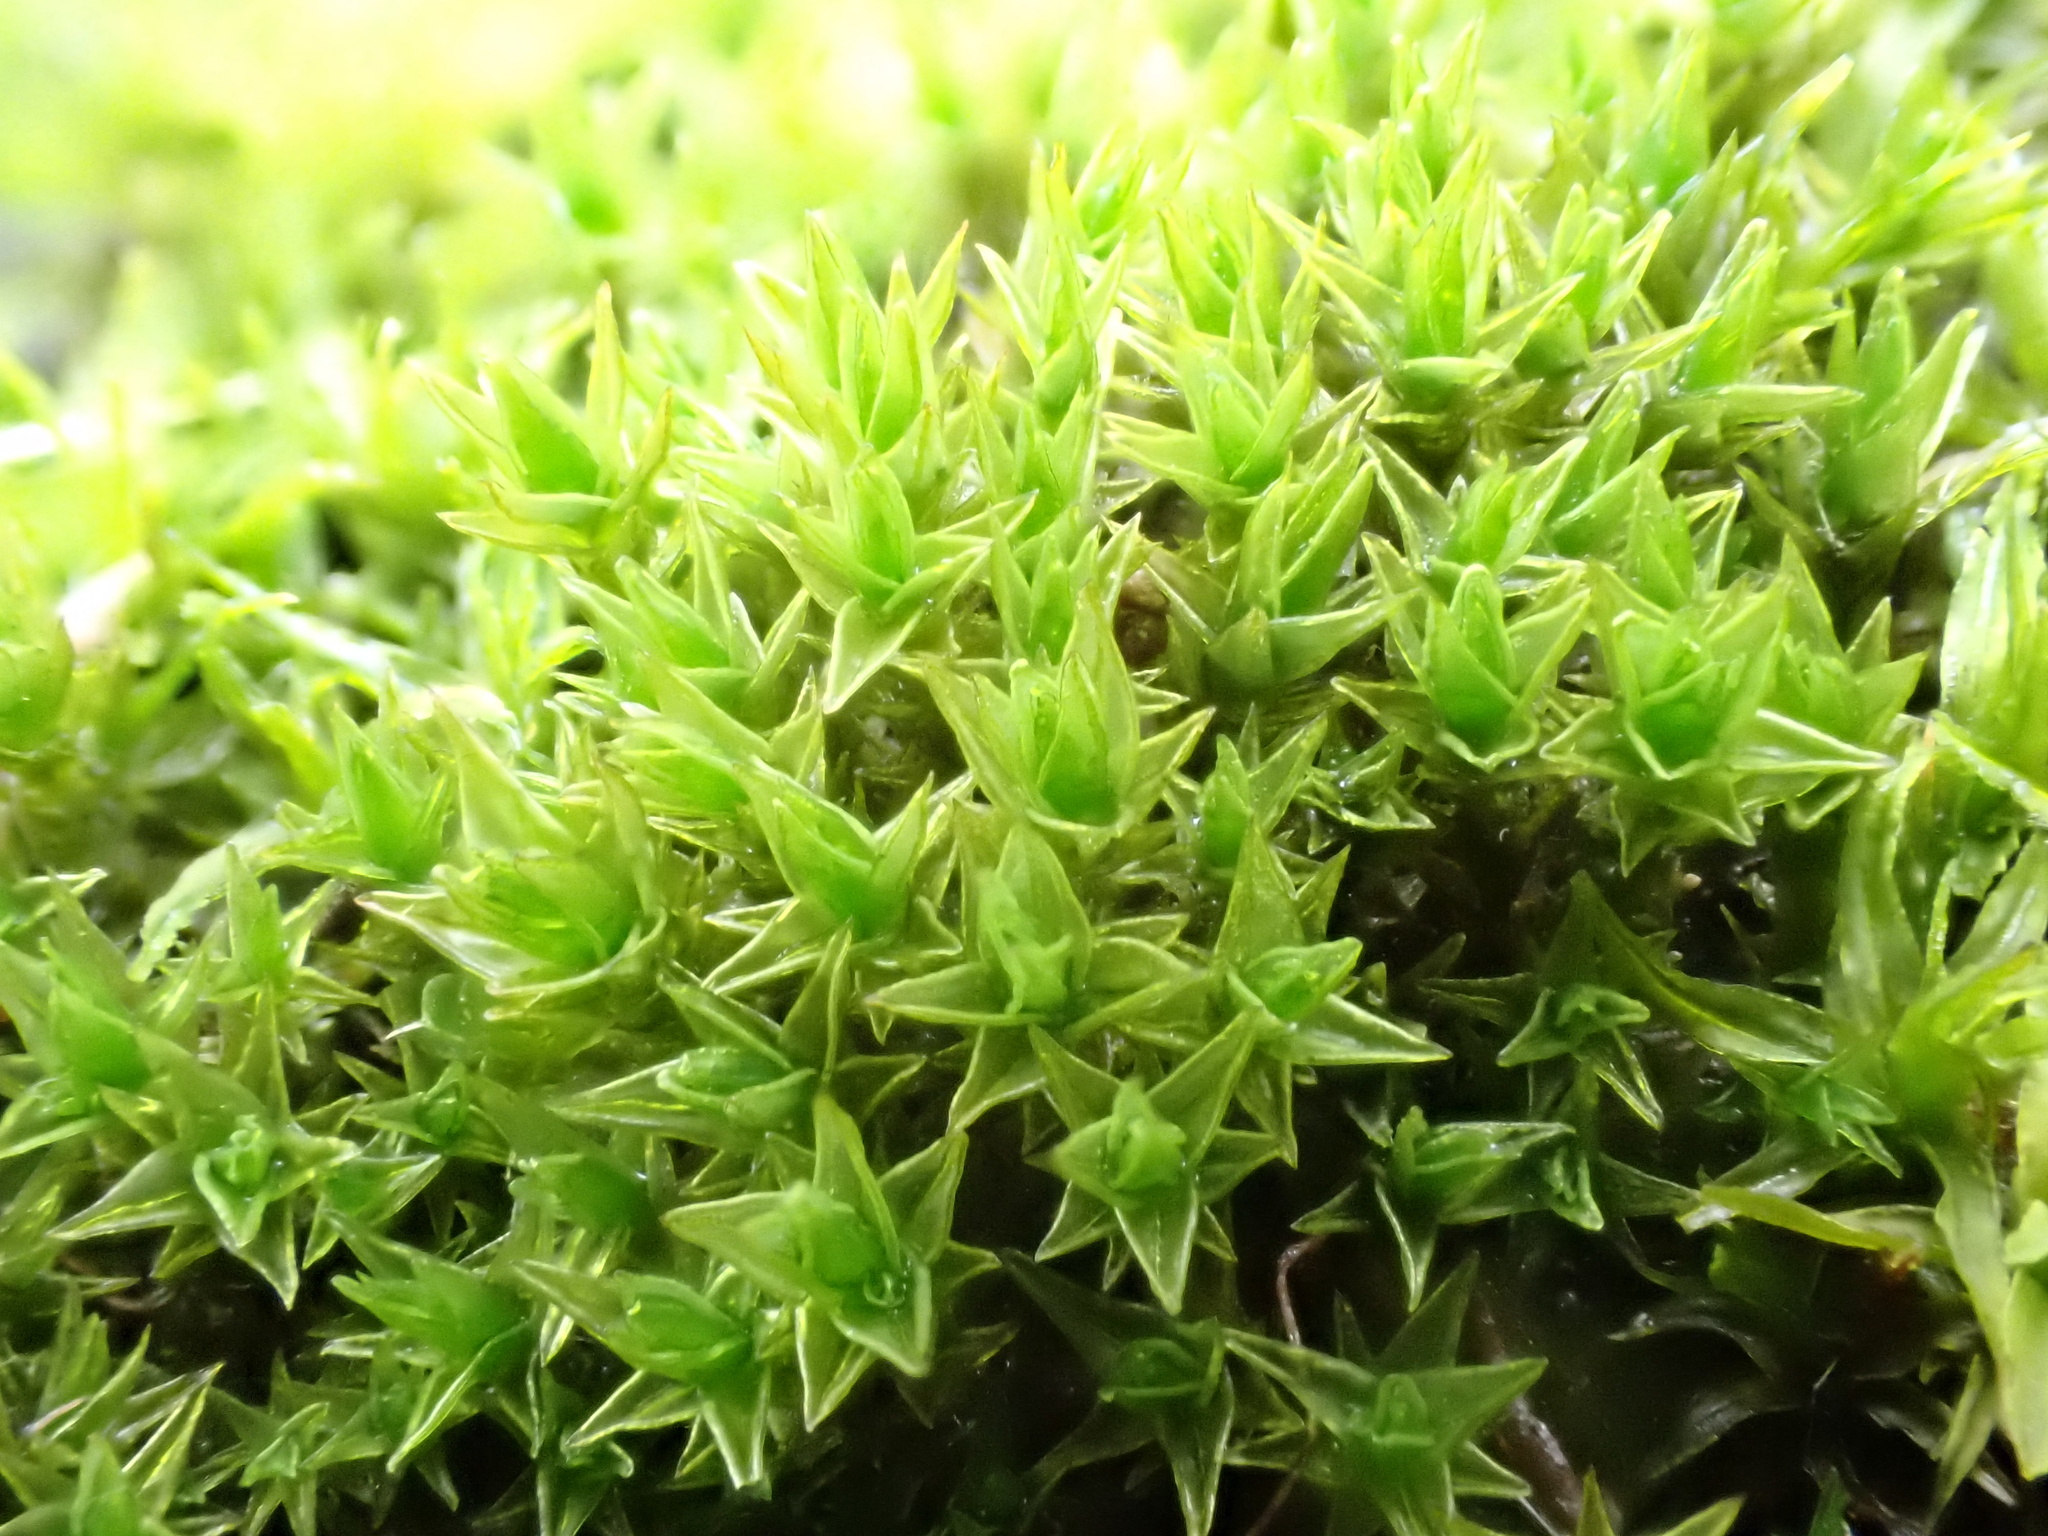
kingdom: Plantae
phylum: Bryophyta
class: Bryopsida
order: Pottiales
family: Pottiaceae
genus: Geheebia
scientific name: Geheebia lurida
